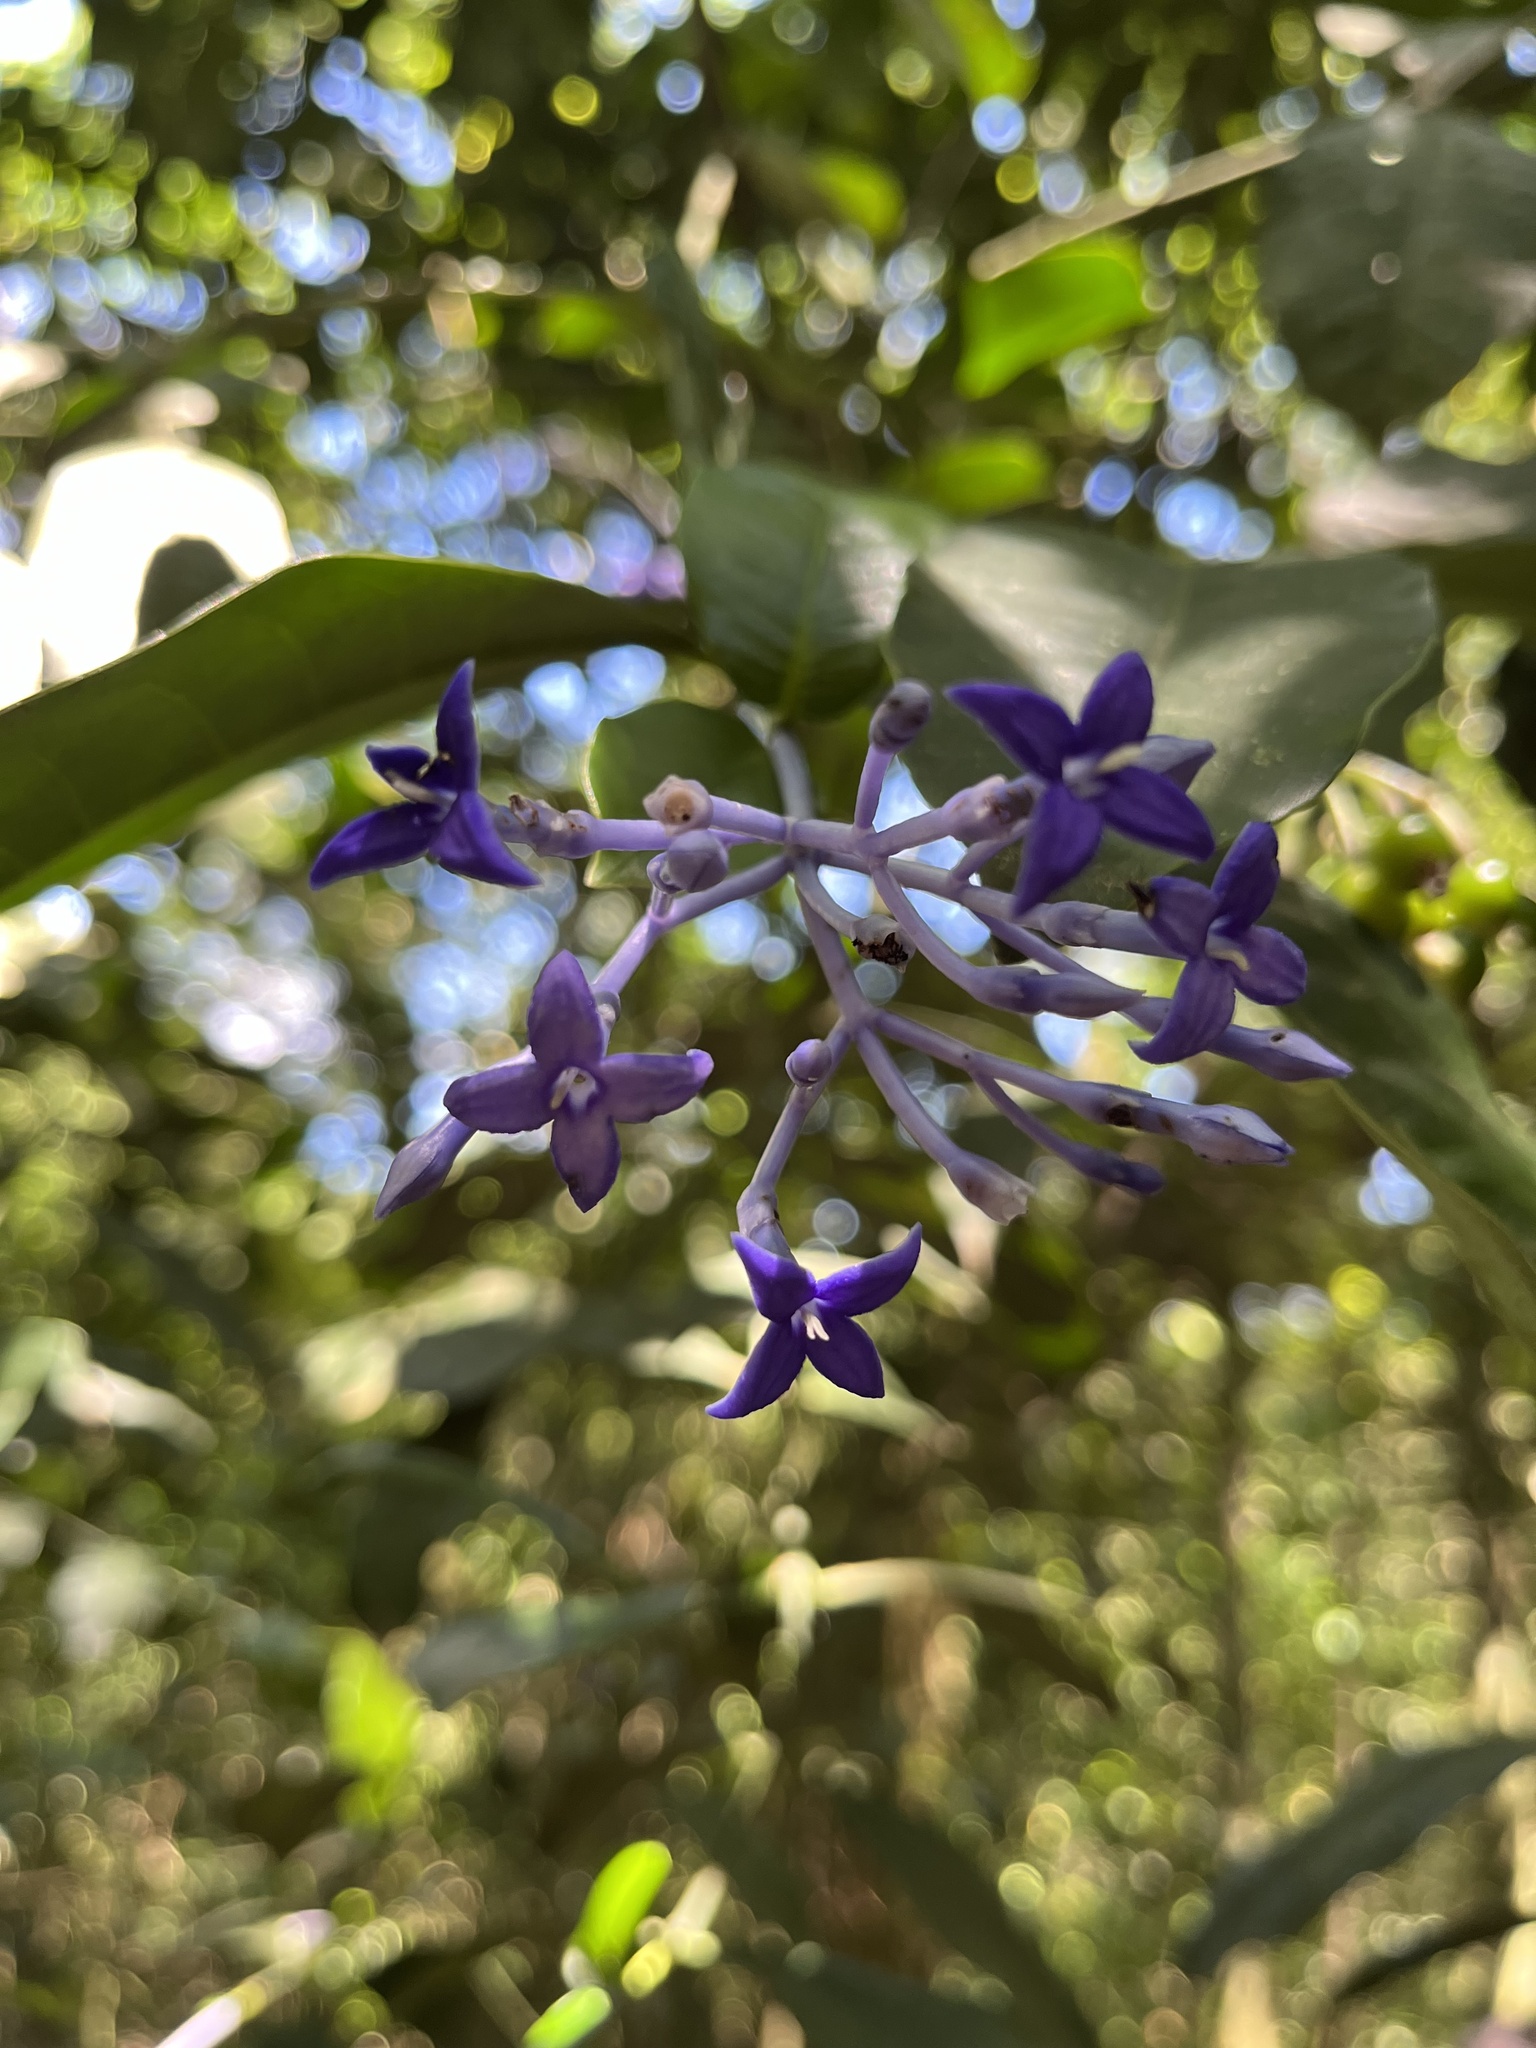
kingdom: Plantae
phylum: Tracheophyta
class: Magnoliopsida
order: Gentianales
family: Rubiaceae
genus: Faramea
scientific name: Faramea hyacinthina
